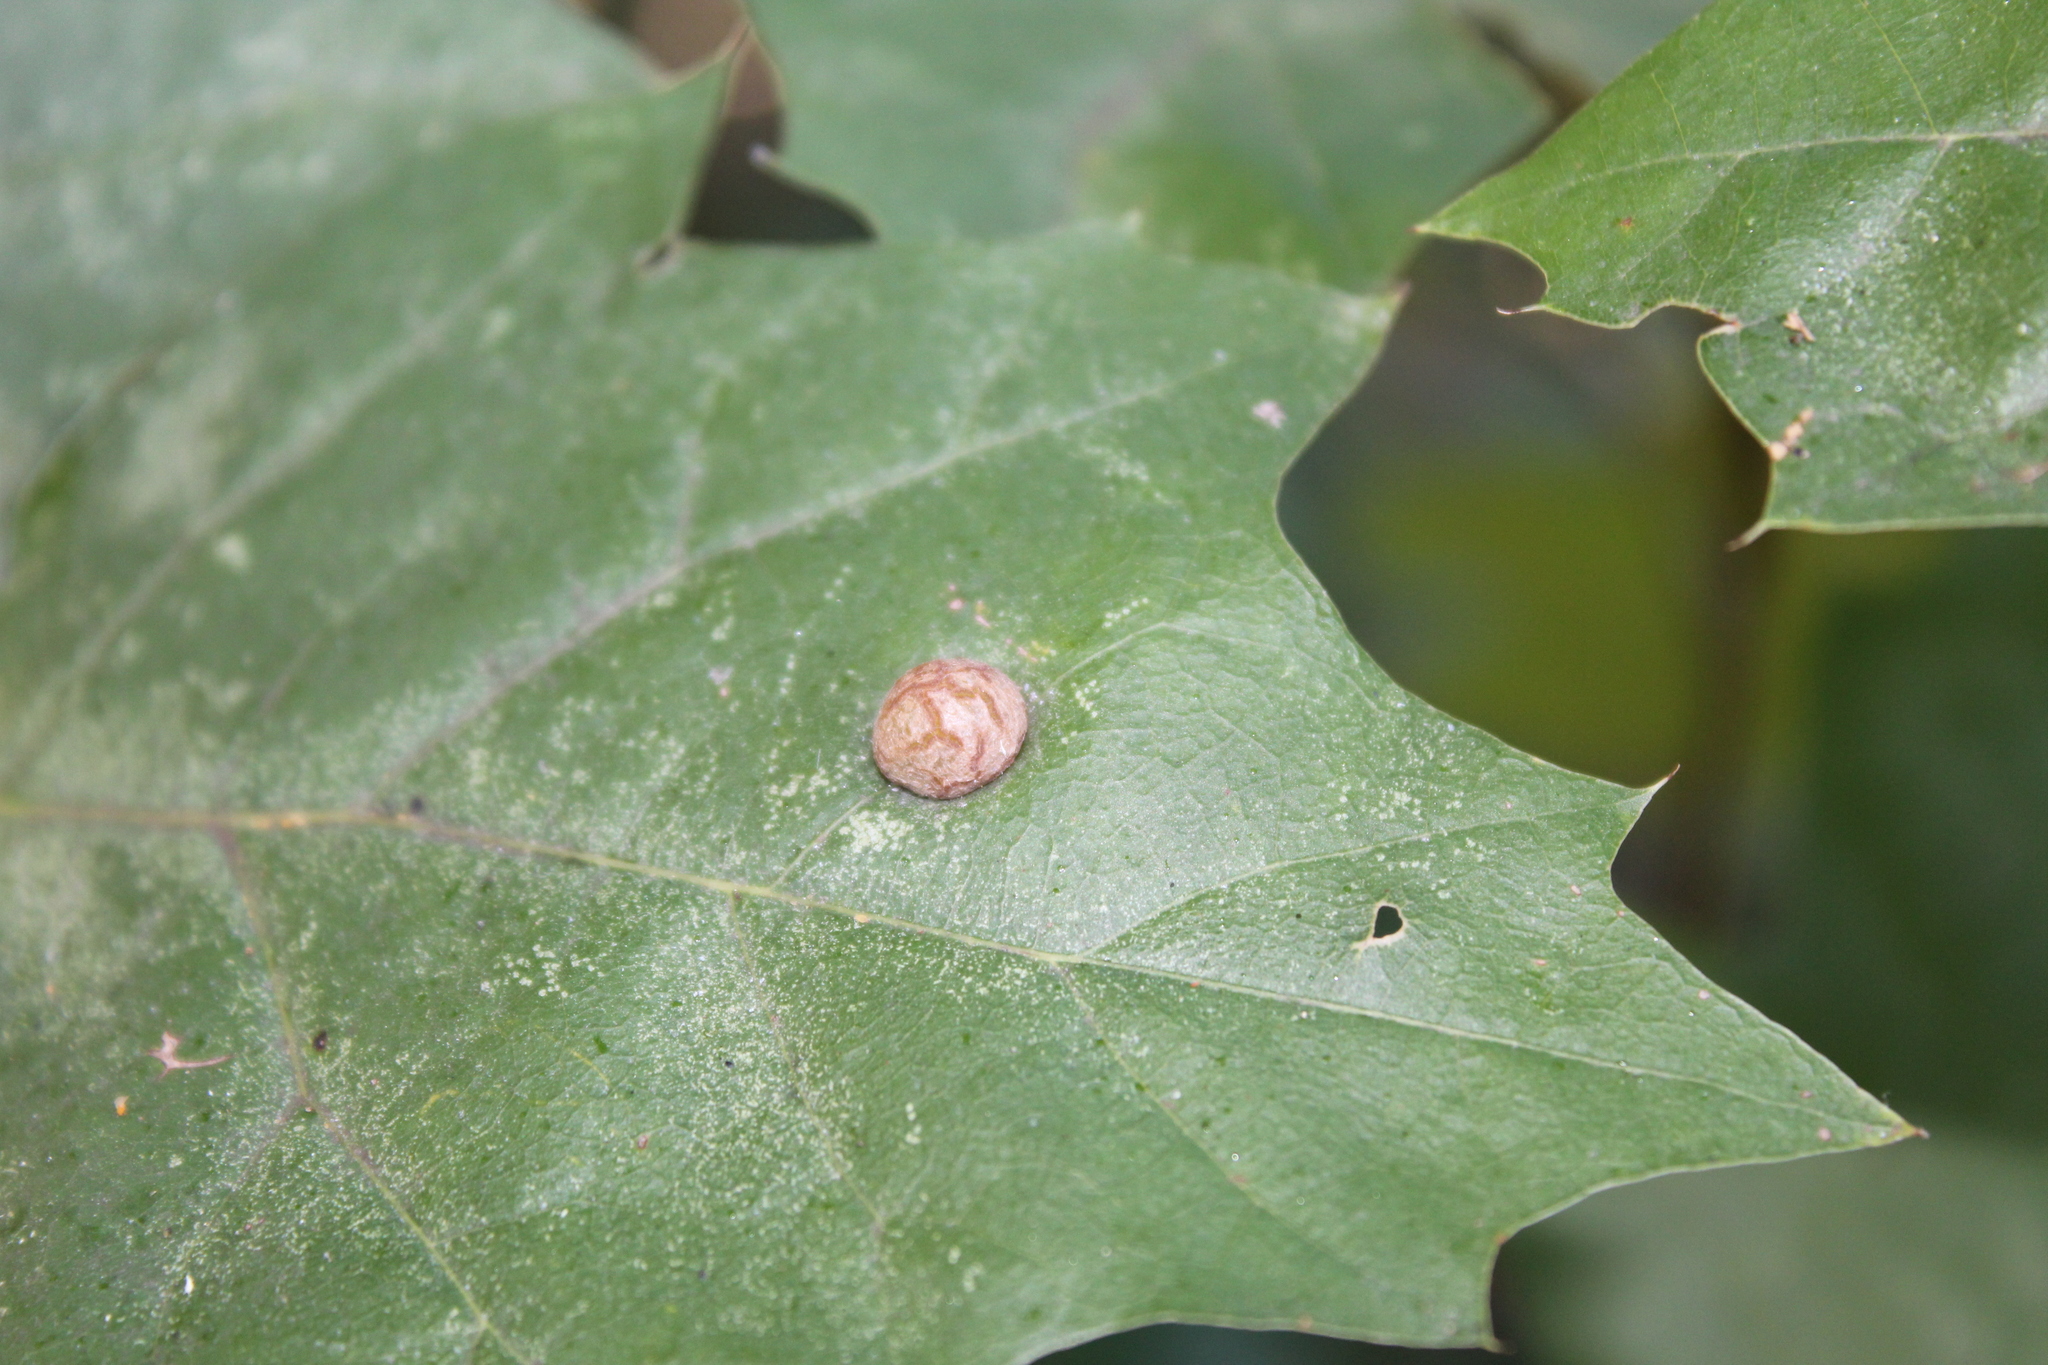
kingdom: Animalia
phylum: Arthropoda
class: Insecta
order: Diptera
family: Cecidomyiidae
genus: Polystepha
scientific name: Polystepha pilulae
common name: Oak leaf gall midge
